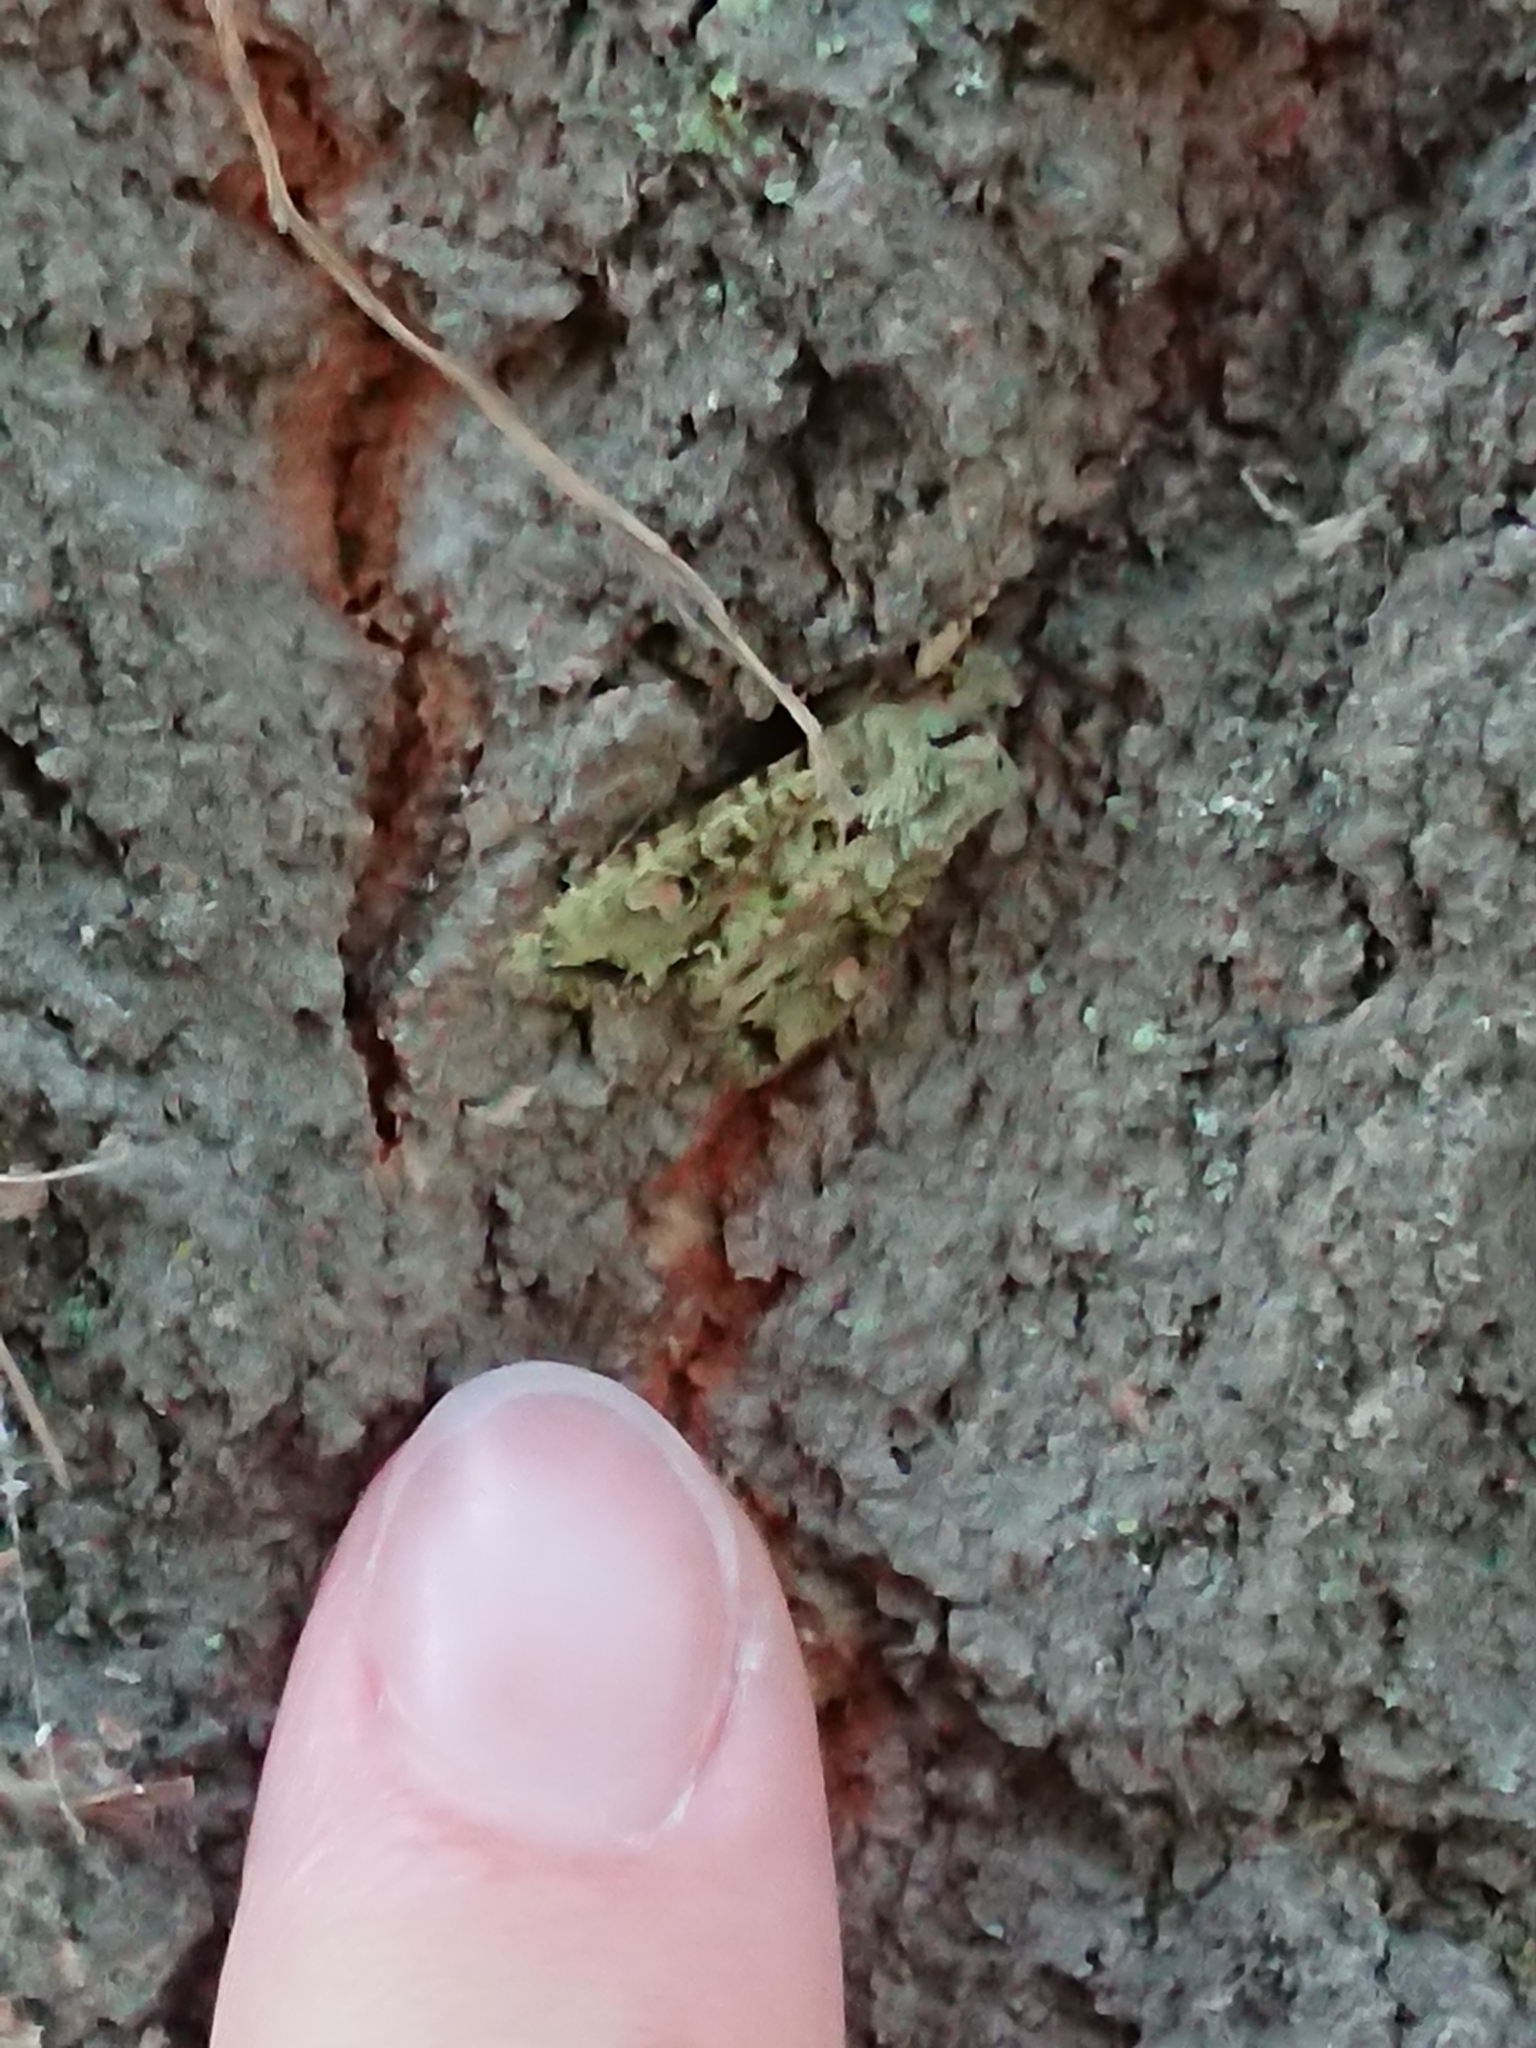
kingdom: Animalia
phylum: Arthropoda
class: Insecta
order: Lepidoptera
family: Noctuidae
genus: Ichneutica
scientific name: Ichneutica
